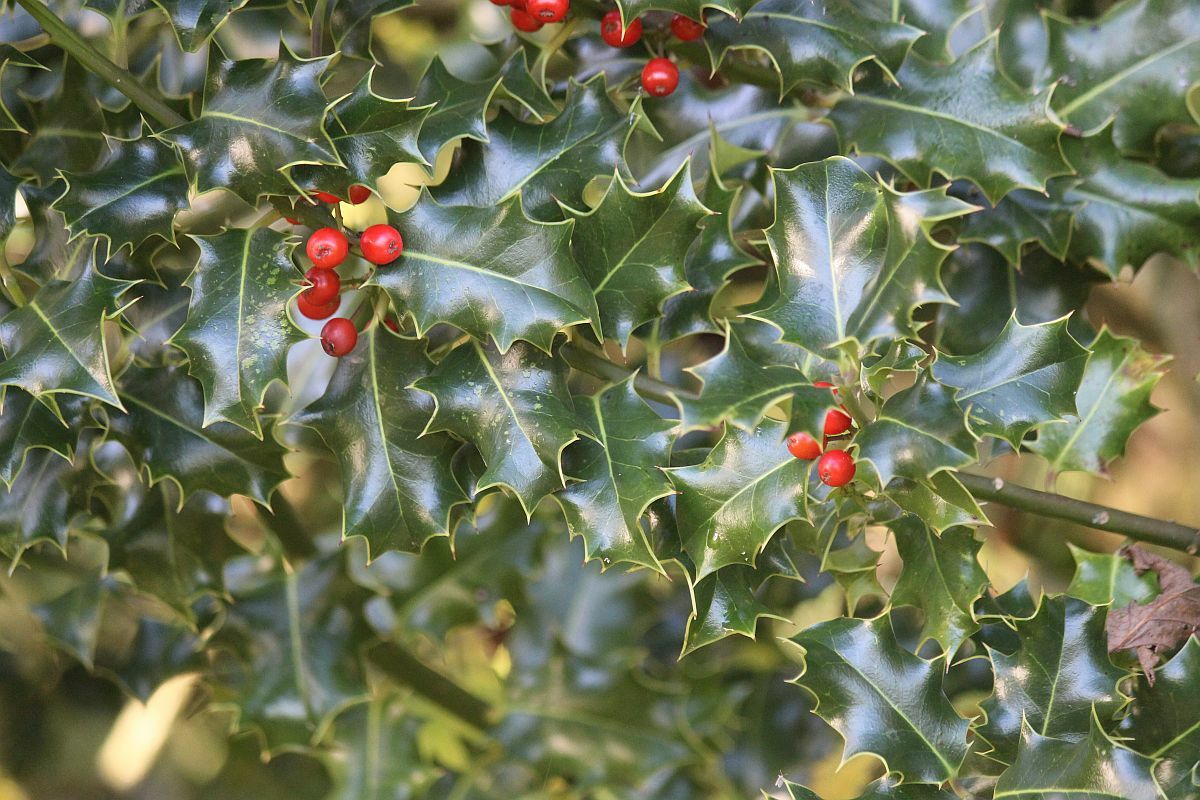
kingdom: Plantae
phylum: Tracheophyta
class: Magnoliopsida
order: Aquifoliales
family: Aquifoliaceae
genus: Ilex
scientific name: Ilex aquifolium
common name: English holly
